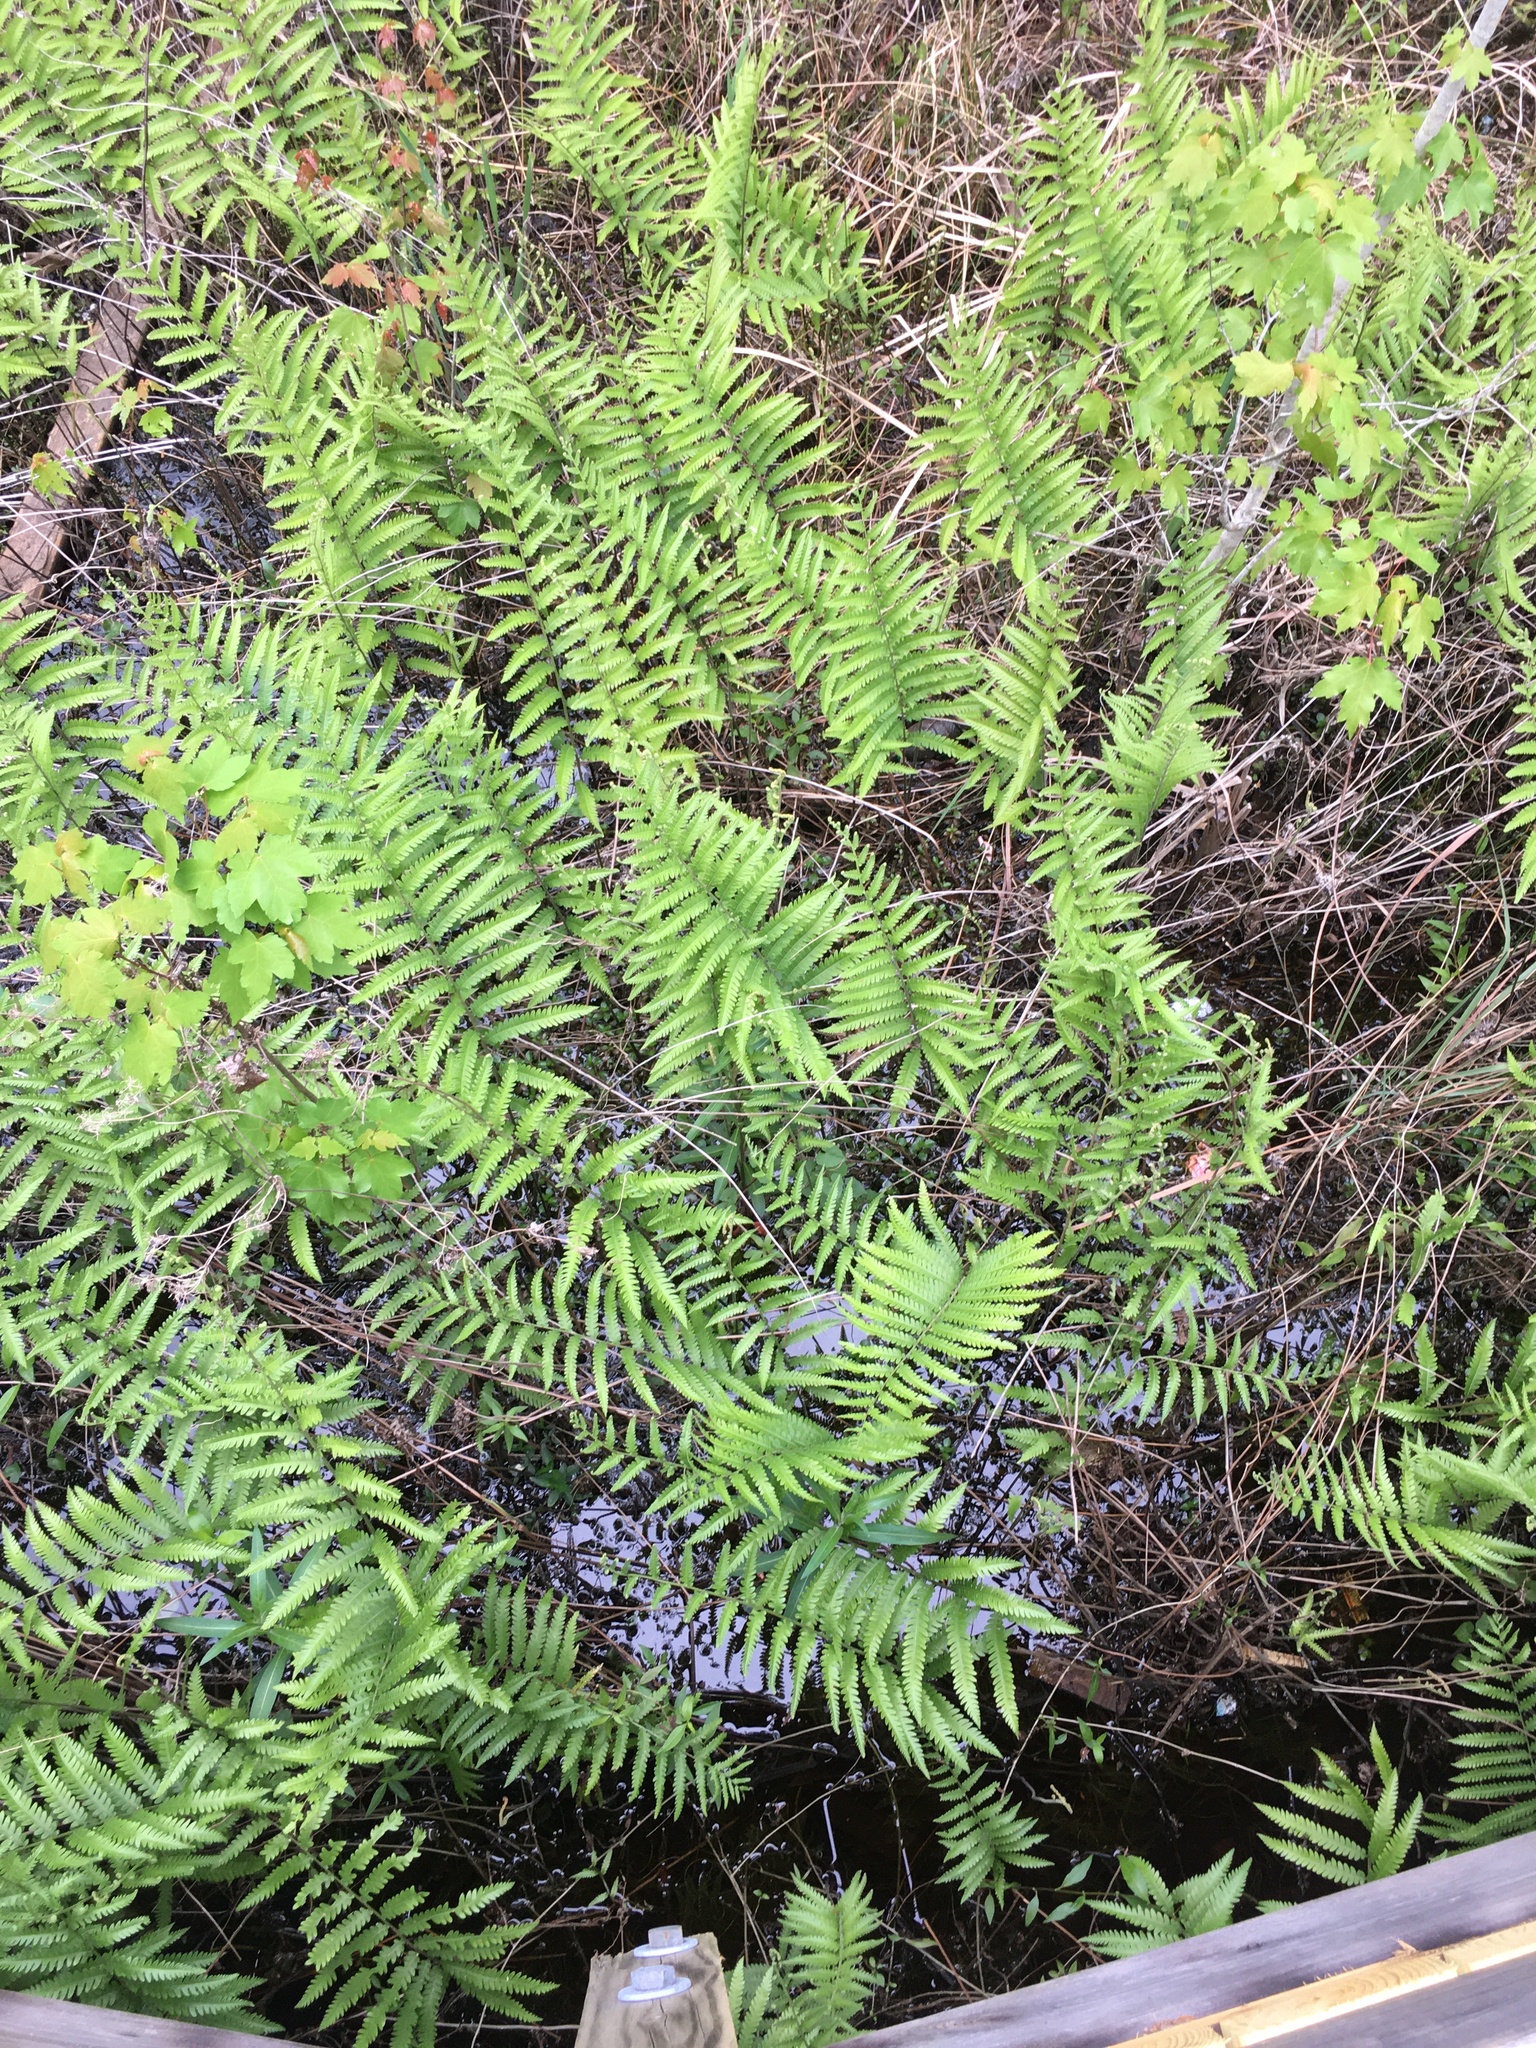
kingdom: Plantae
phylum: Tracheophyta
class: Polypodiopsida
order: Polypodiales
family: Blechnaceae
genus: Anchistea
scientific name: Anchistea virginica
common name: Virginia chain fern
